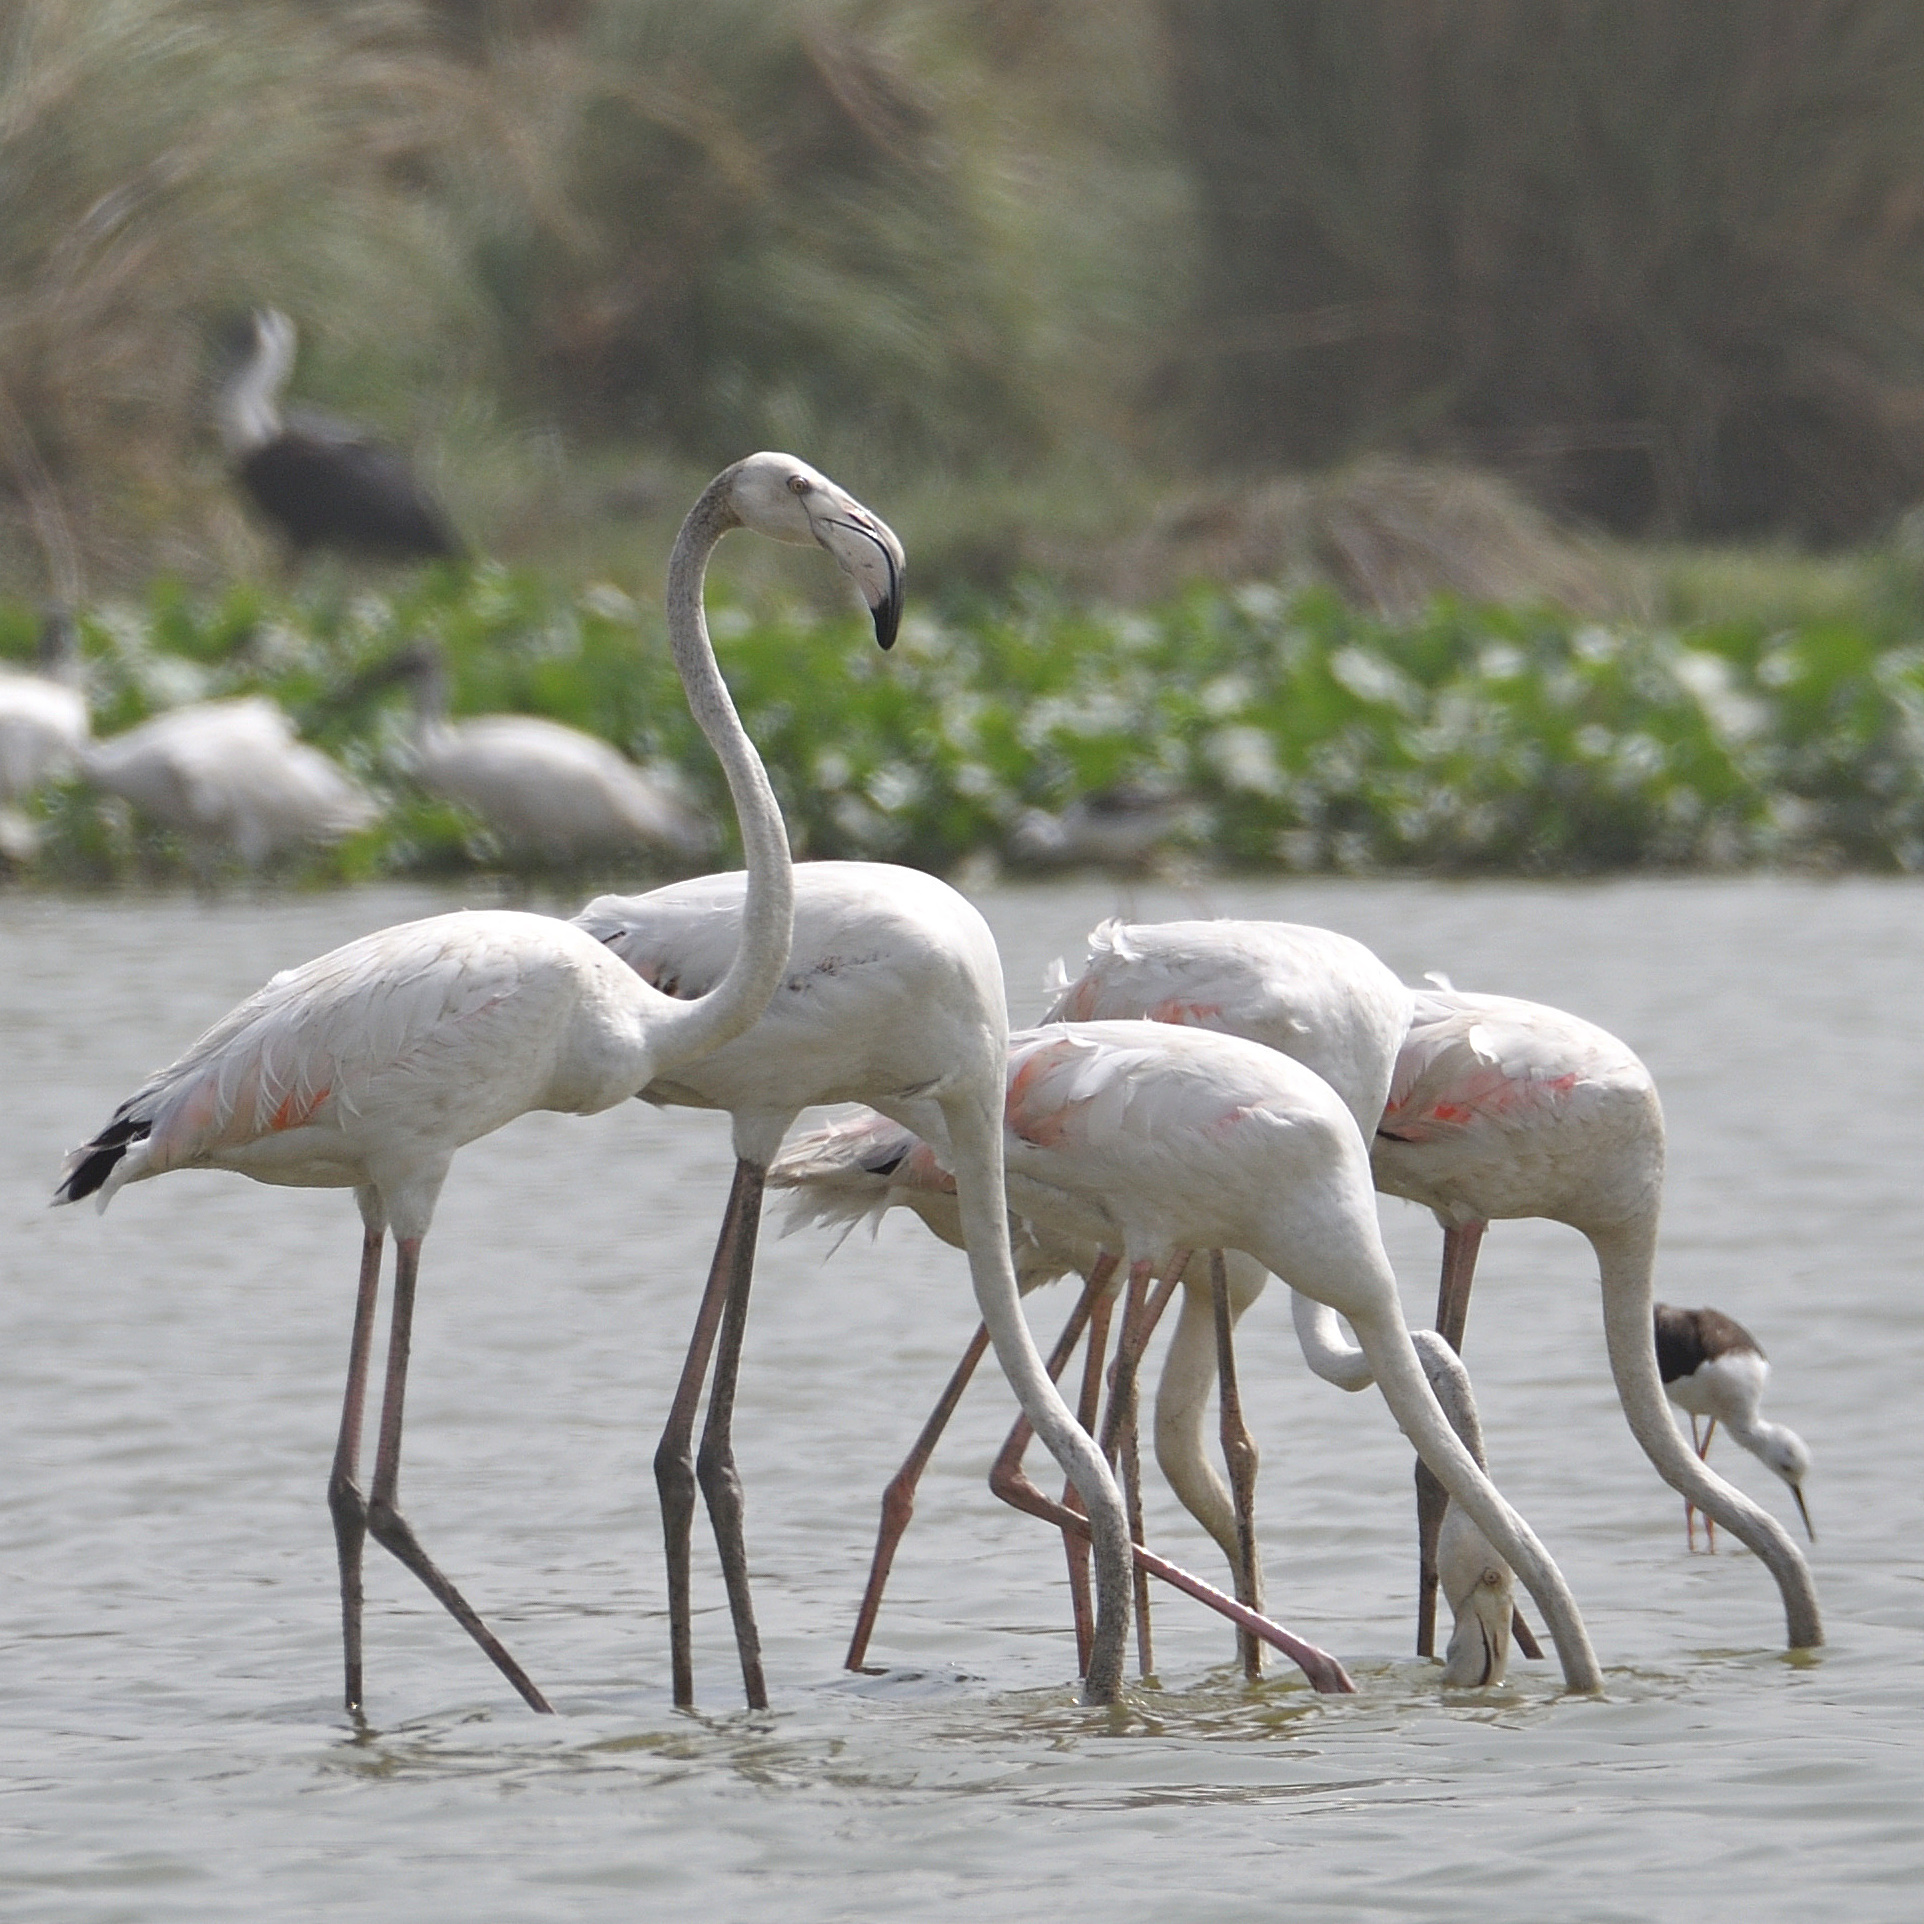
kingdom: Animalia
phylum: Chordata
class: Aves
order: Phoenicopteriformes
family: Phoenicopteridae
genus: Phoenicopterus
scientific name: Phoenicopterus roseus
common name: Greater flamingo
